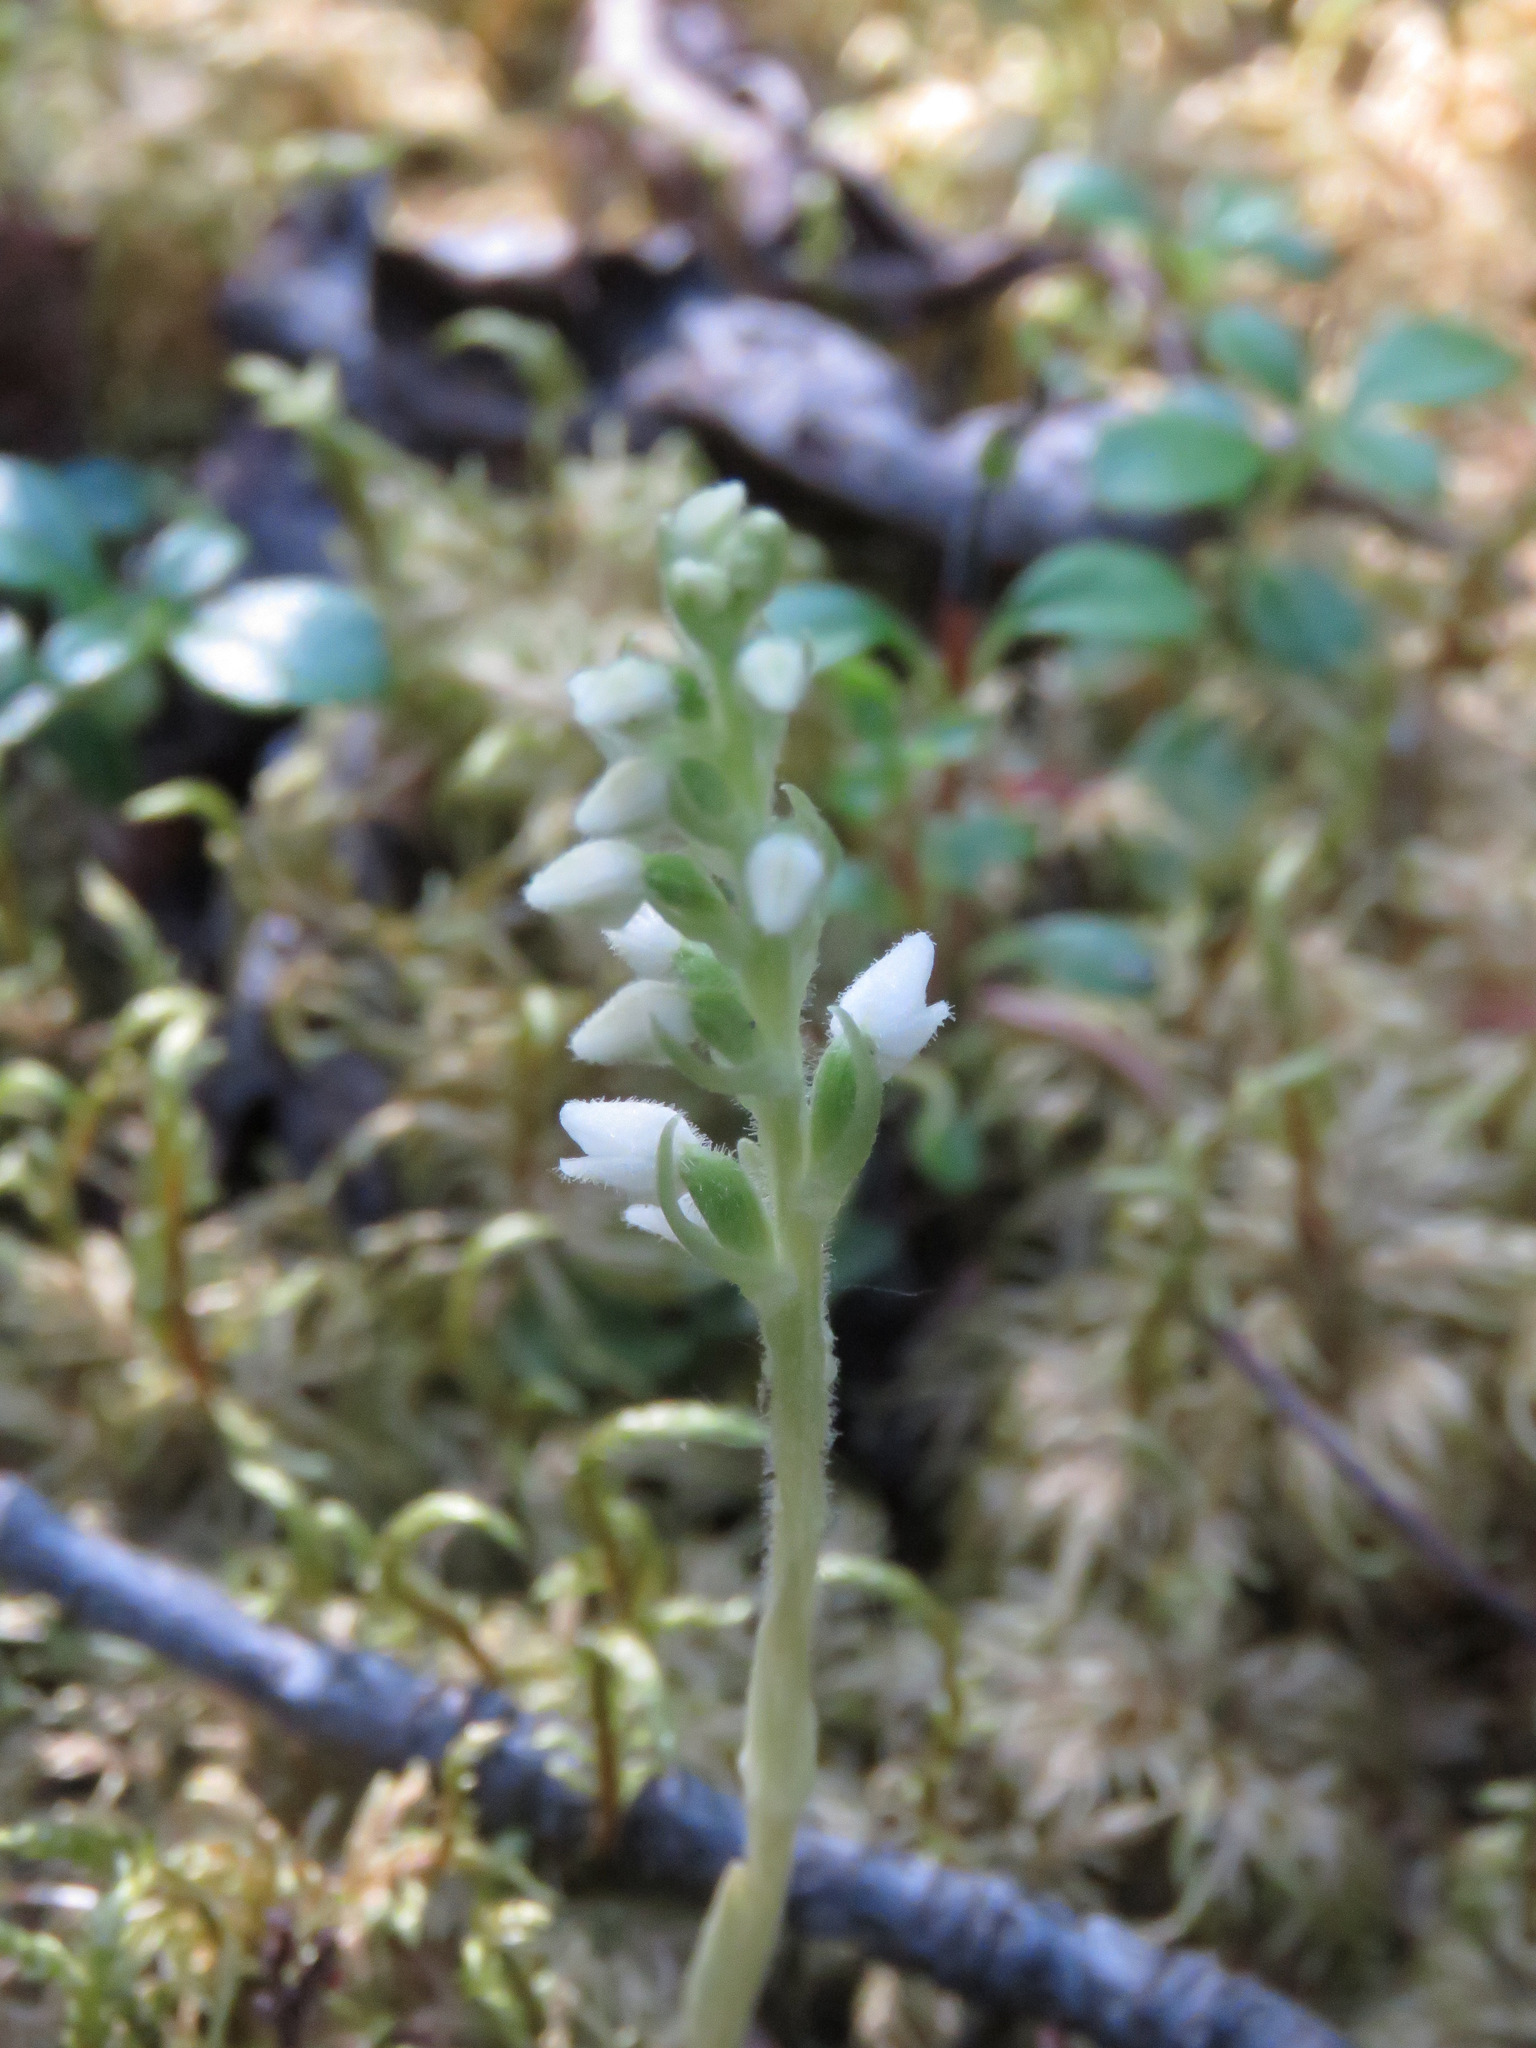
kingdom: Plantae
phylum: Tracheophyta
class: Liliopsida
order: Asparagales
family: Orchidaceae
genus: Goodyera
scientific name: Goodyera repens
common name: Creeping lady's-tresses
